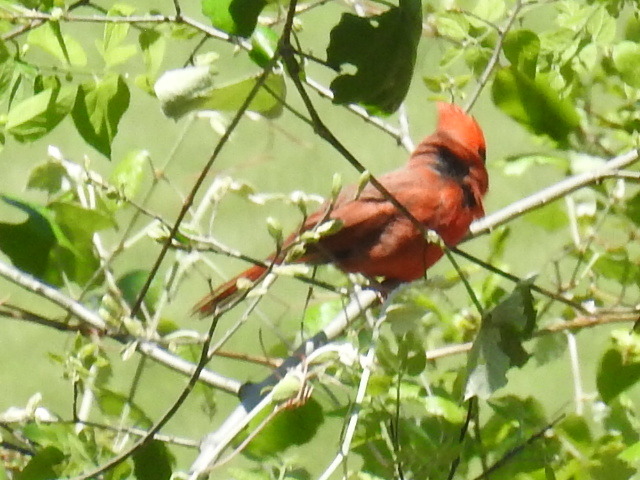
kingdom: Animalia
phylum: Chordata
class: Aves
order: Passeriformes
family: Cardinalidae
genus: Cardinalis
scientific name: Cardinalis cardinalis
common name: Northern cardinal
